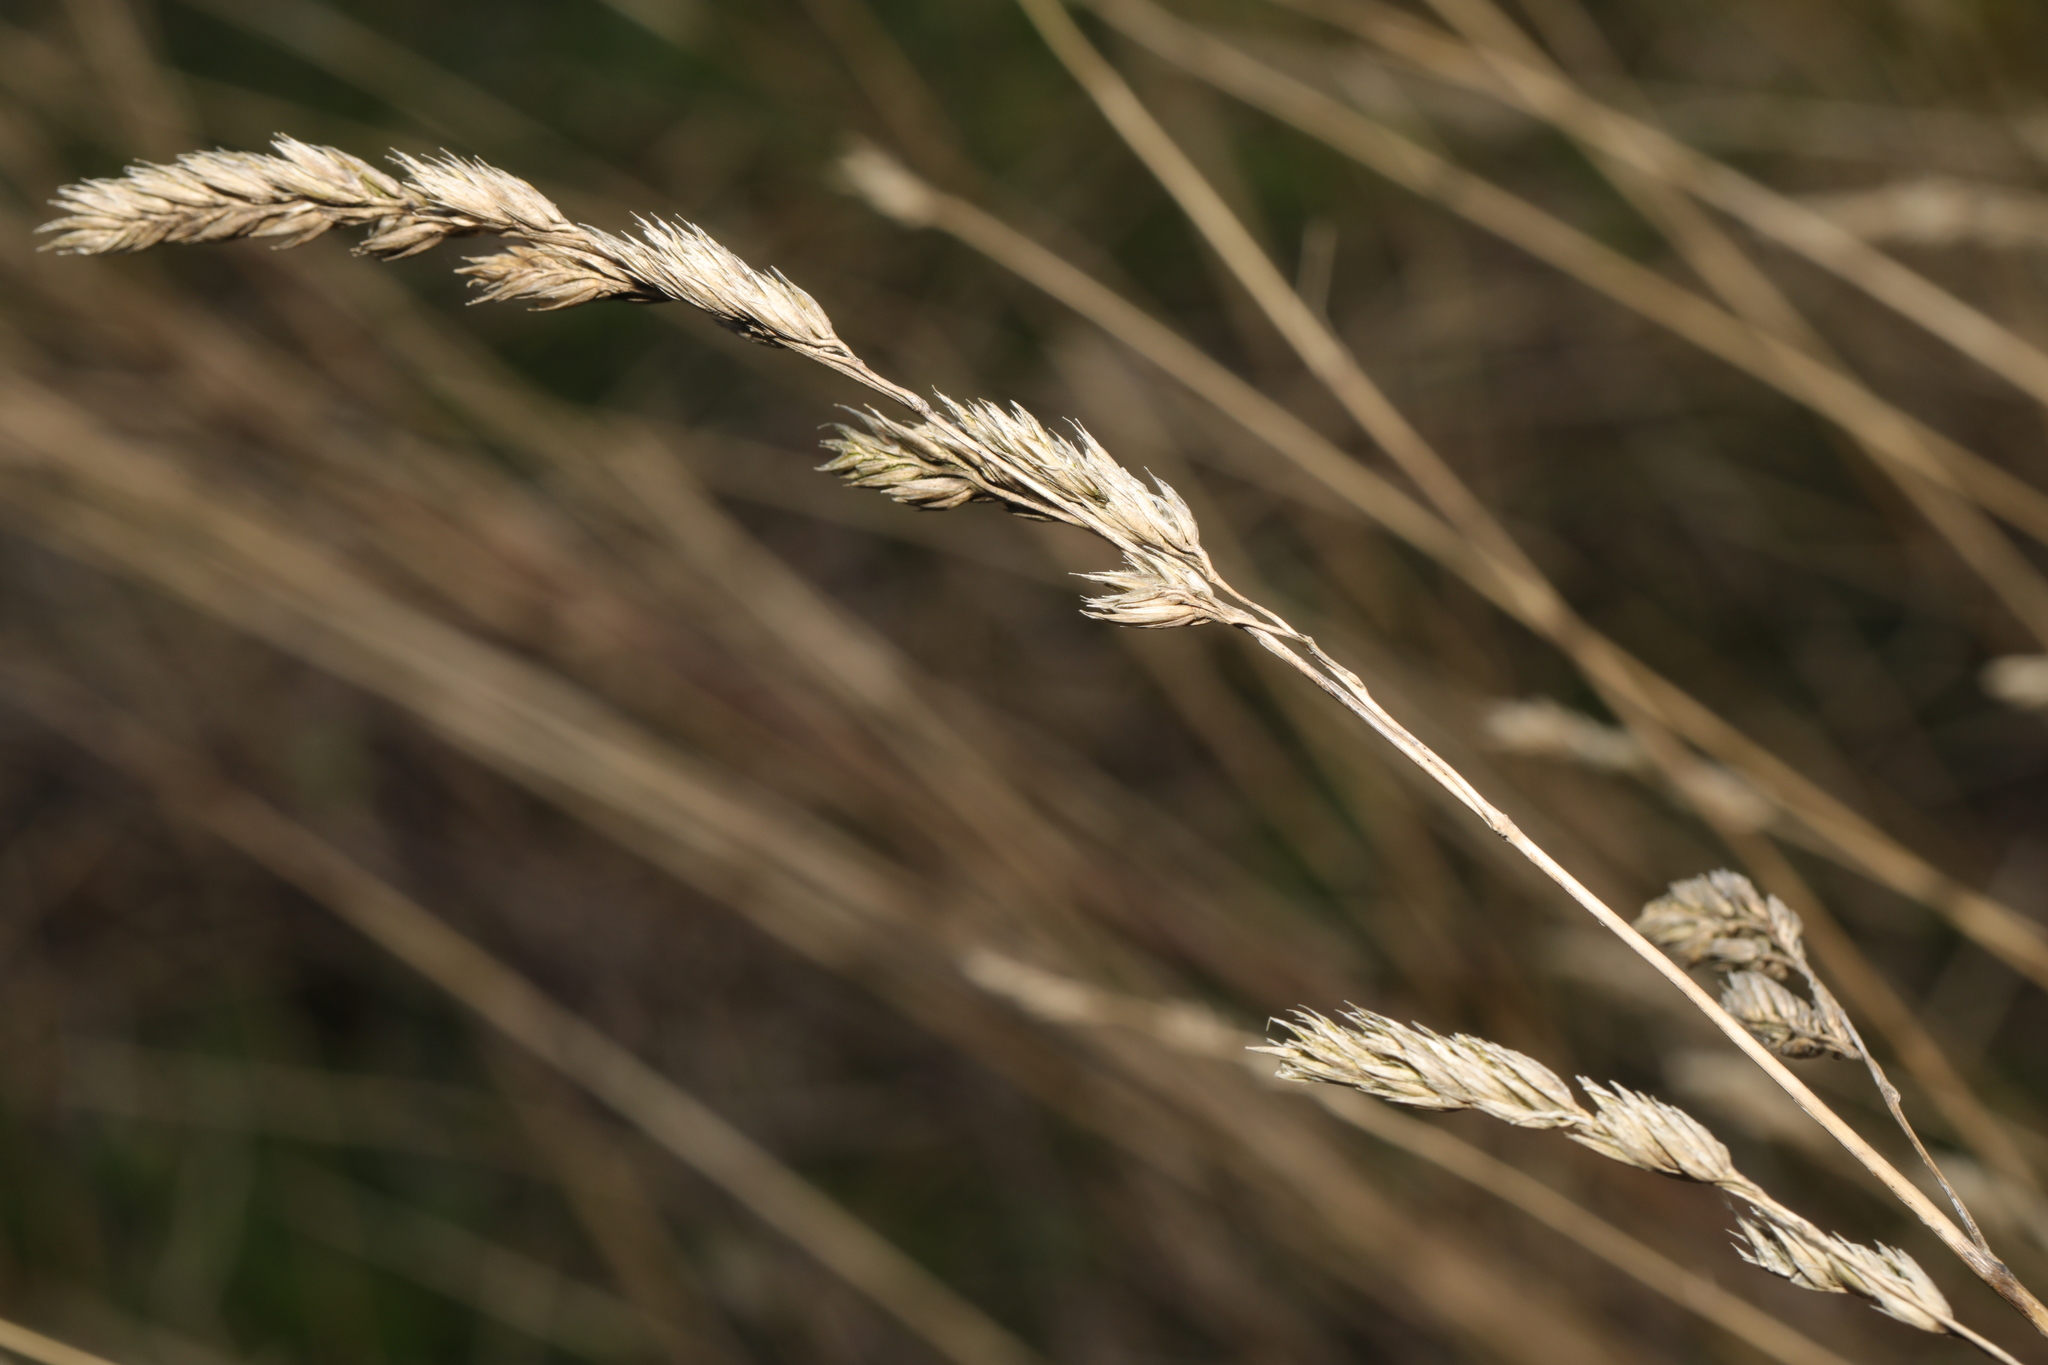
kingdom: Plantae
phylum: Tracheophyta
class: Liliopsida
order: Poales
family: Poaceae
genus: Dactylis
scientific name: Dactylis glomerata
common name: Orchardgrass
